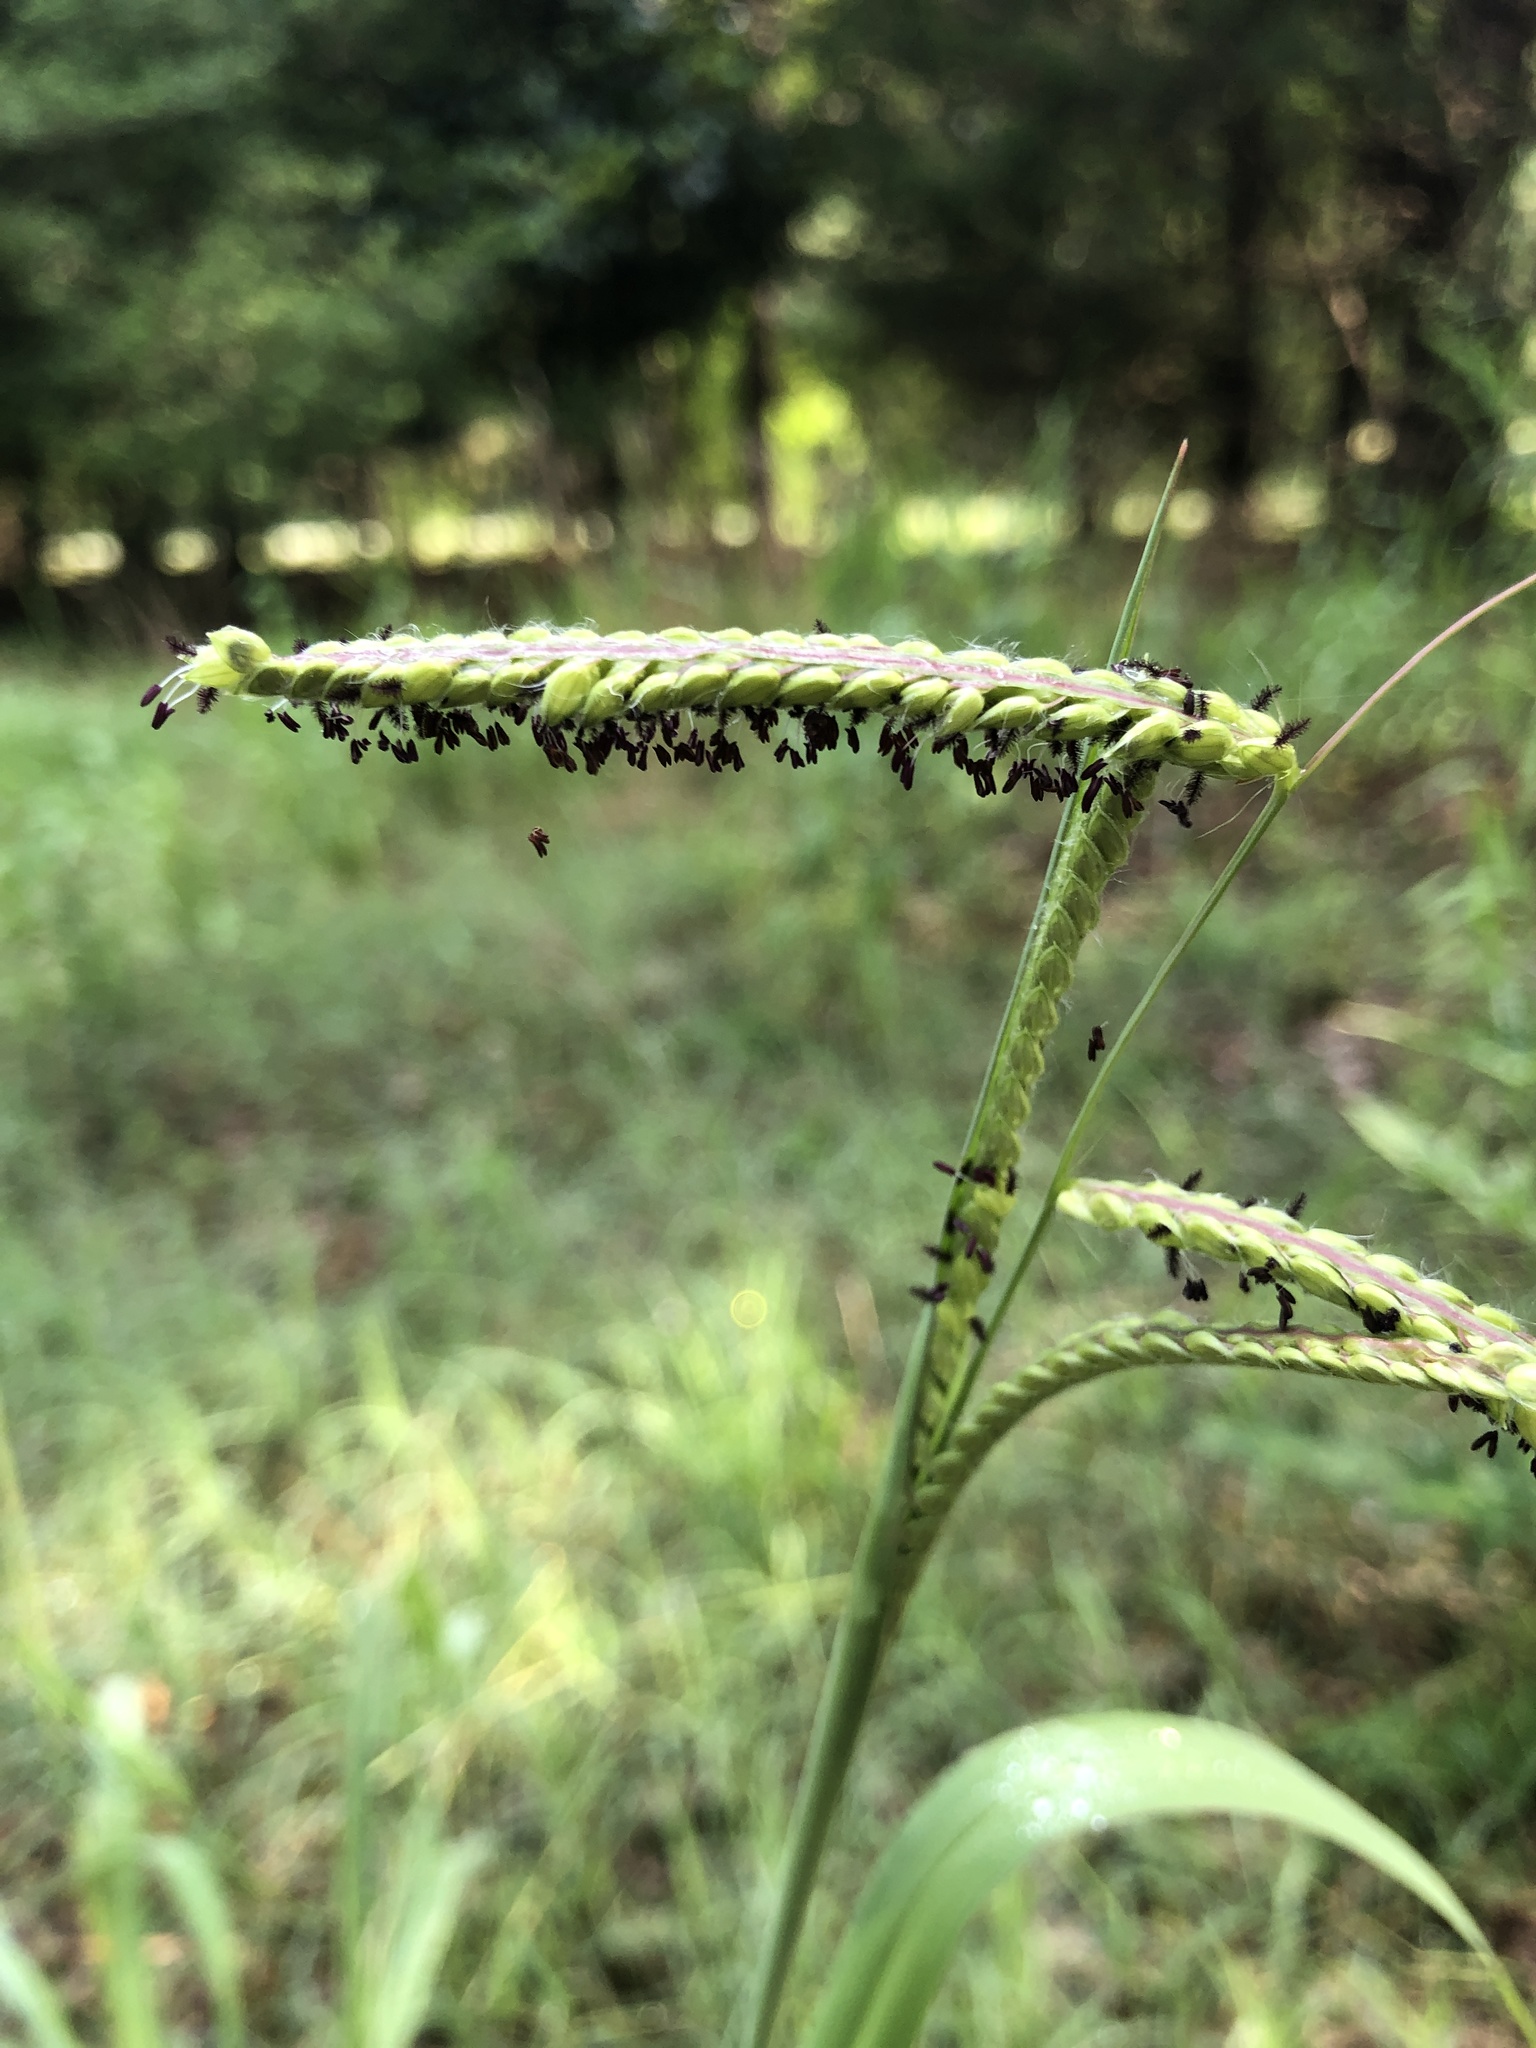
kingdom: Plantae
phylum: Tracheophyta
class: Liliopsida
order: Poales
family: Poaceae
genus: Paspalum
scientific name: Paspalum dilatatum
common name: Dallisgrass
